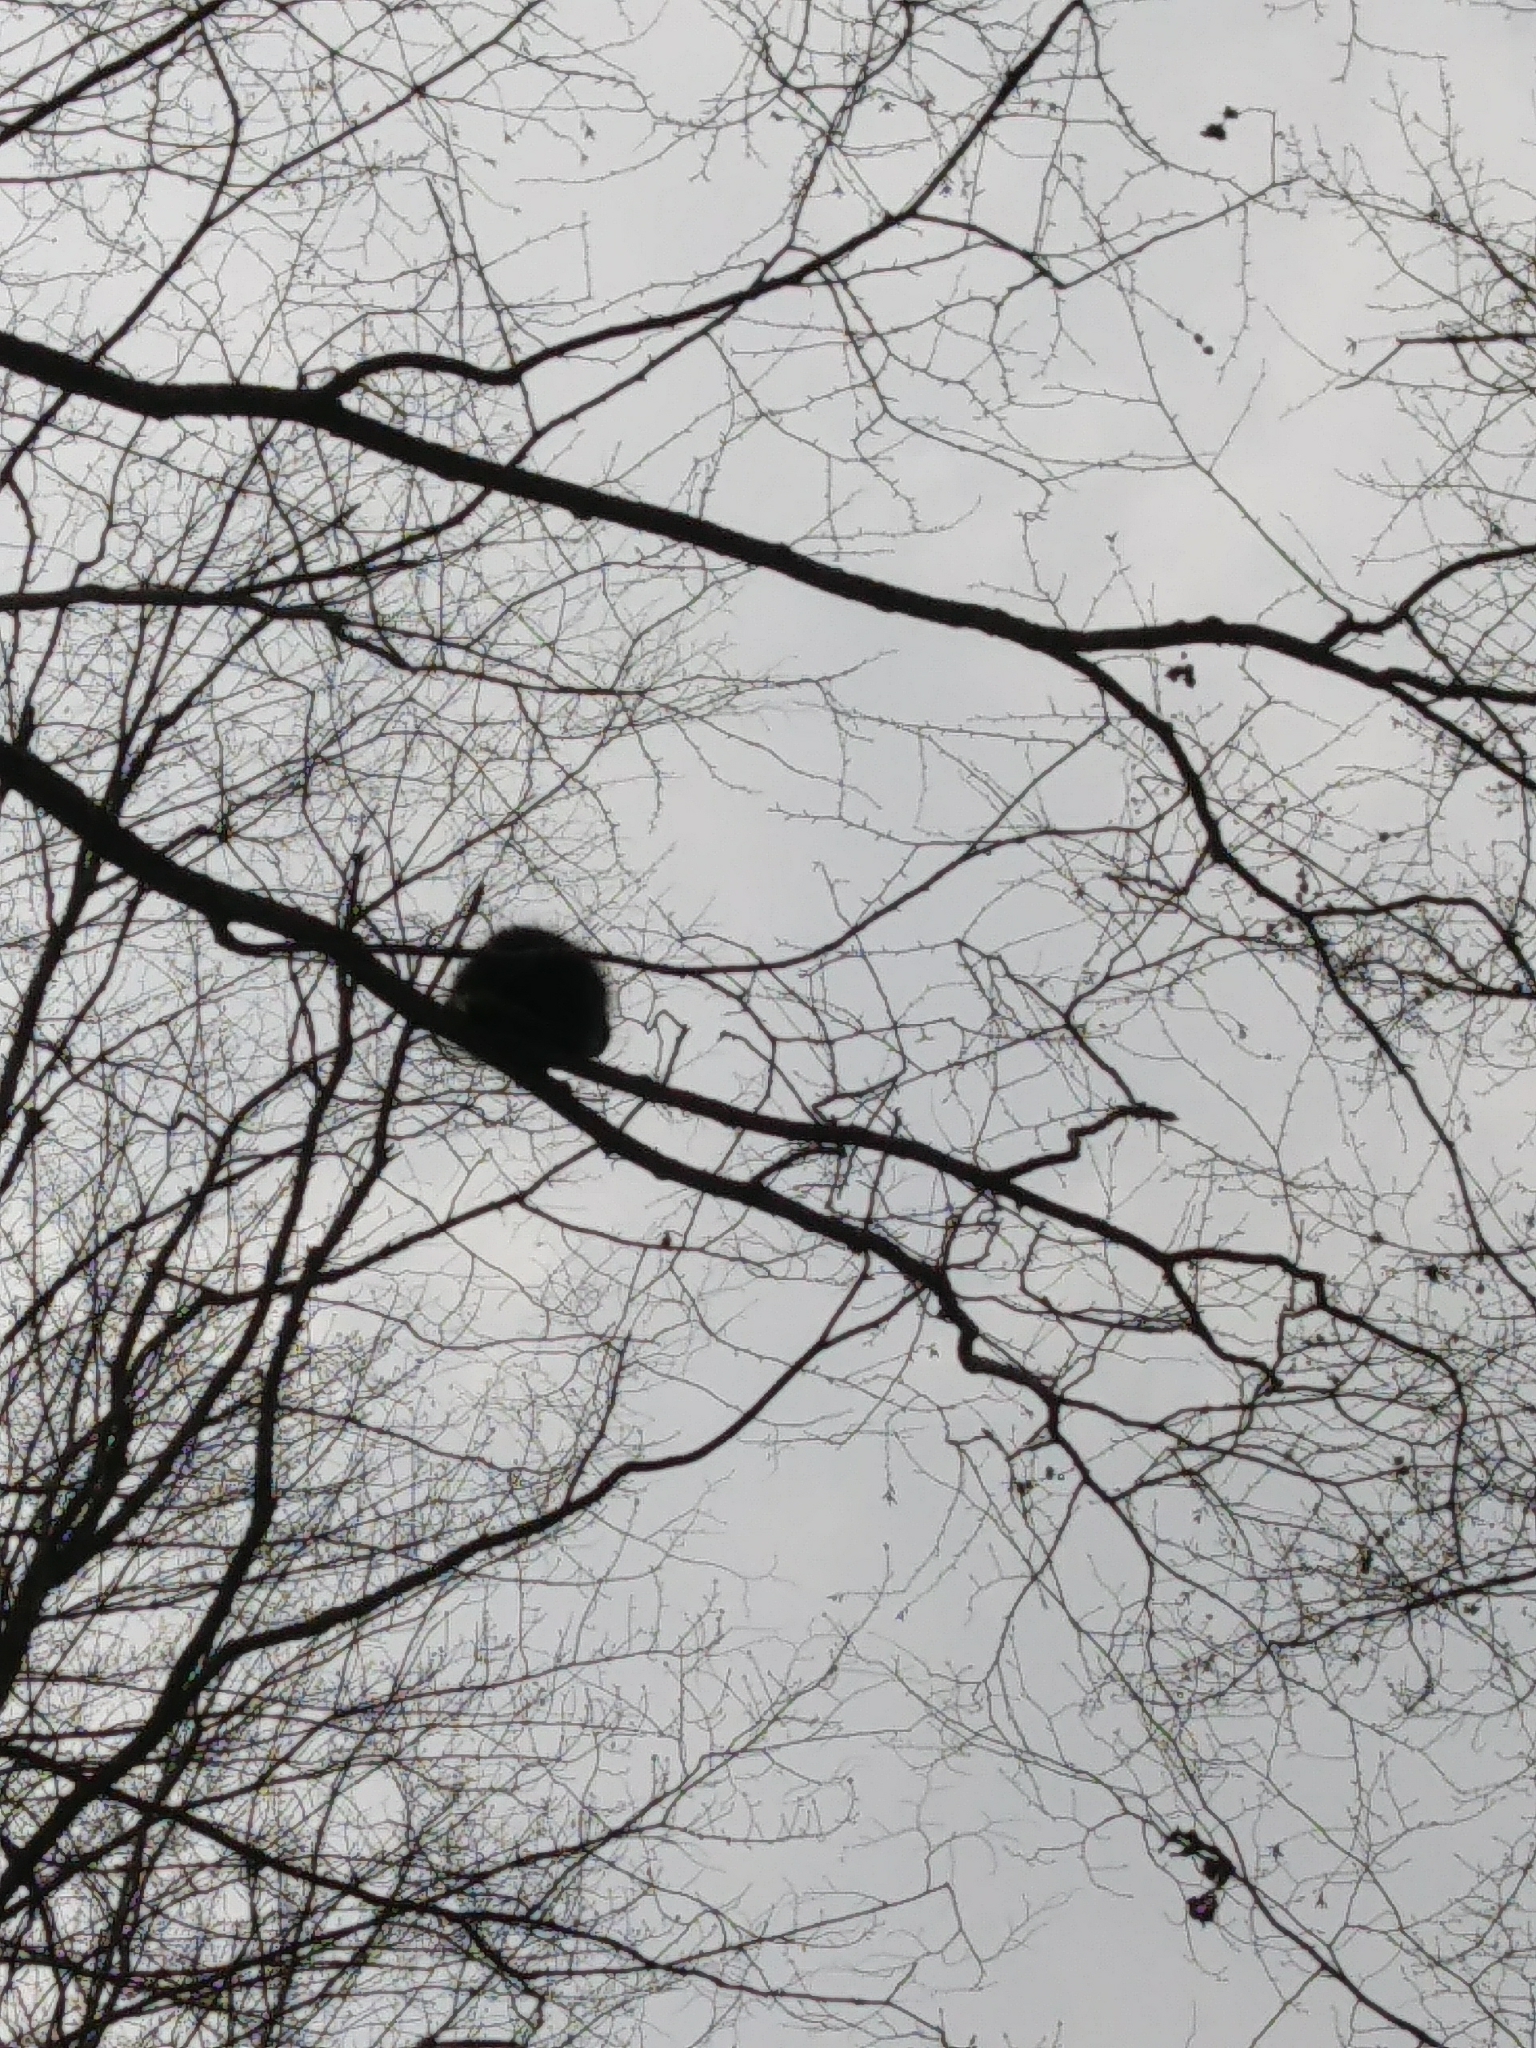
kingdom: Animalia
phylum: Chordata
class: Mammalia
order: Rodentia
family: Erethizontidae
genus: Erethizon
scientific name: Erethizon dorsatus
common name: North american porcupine
